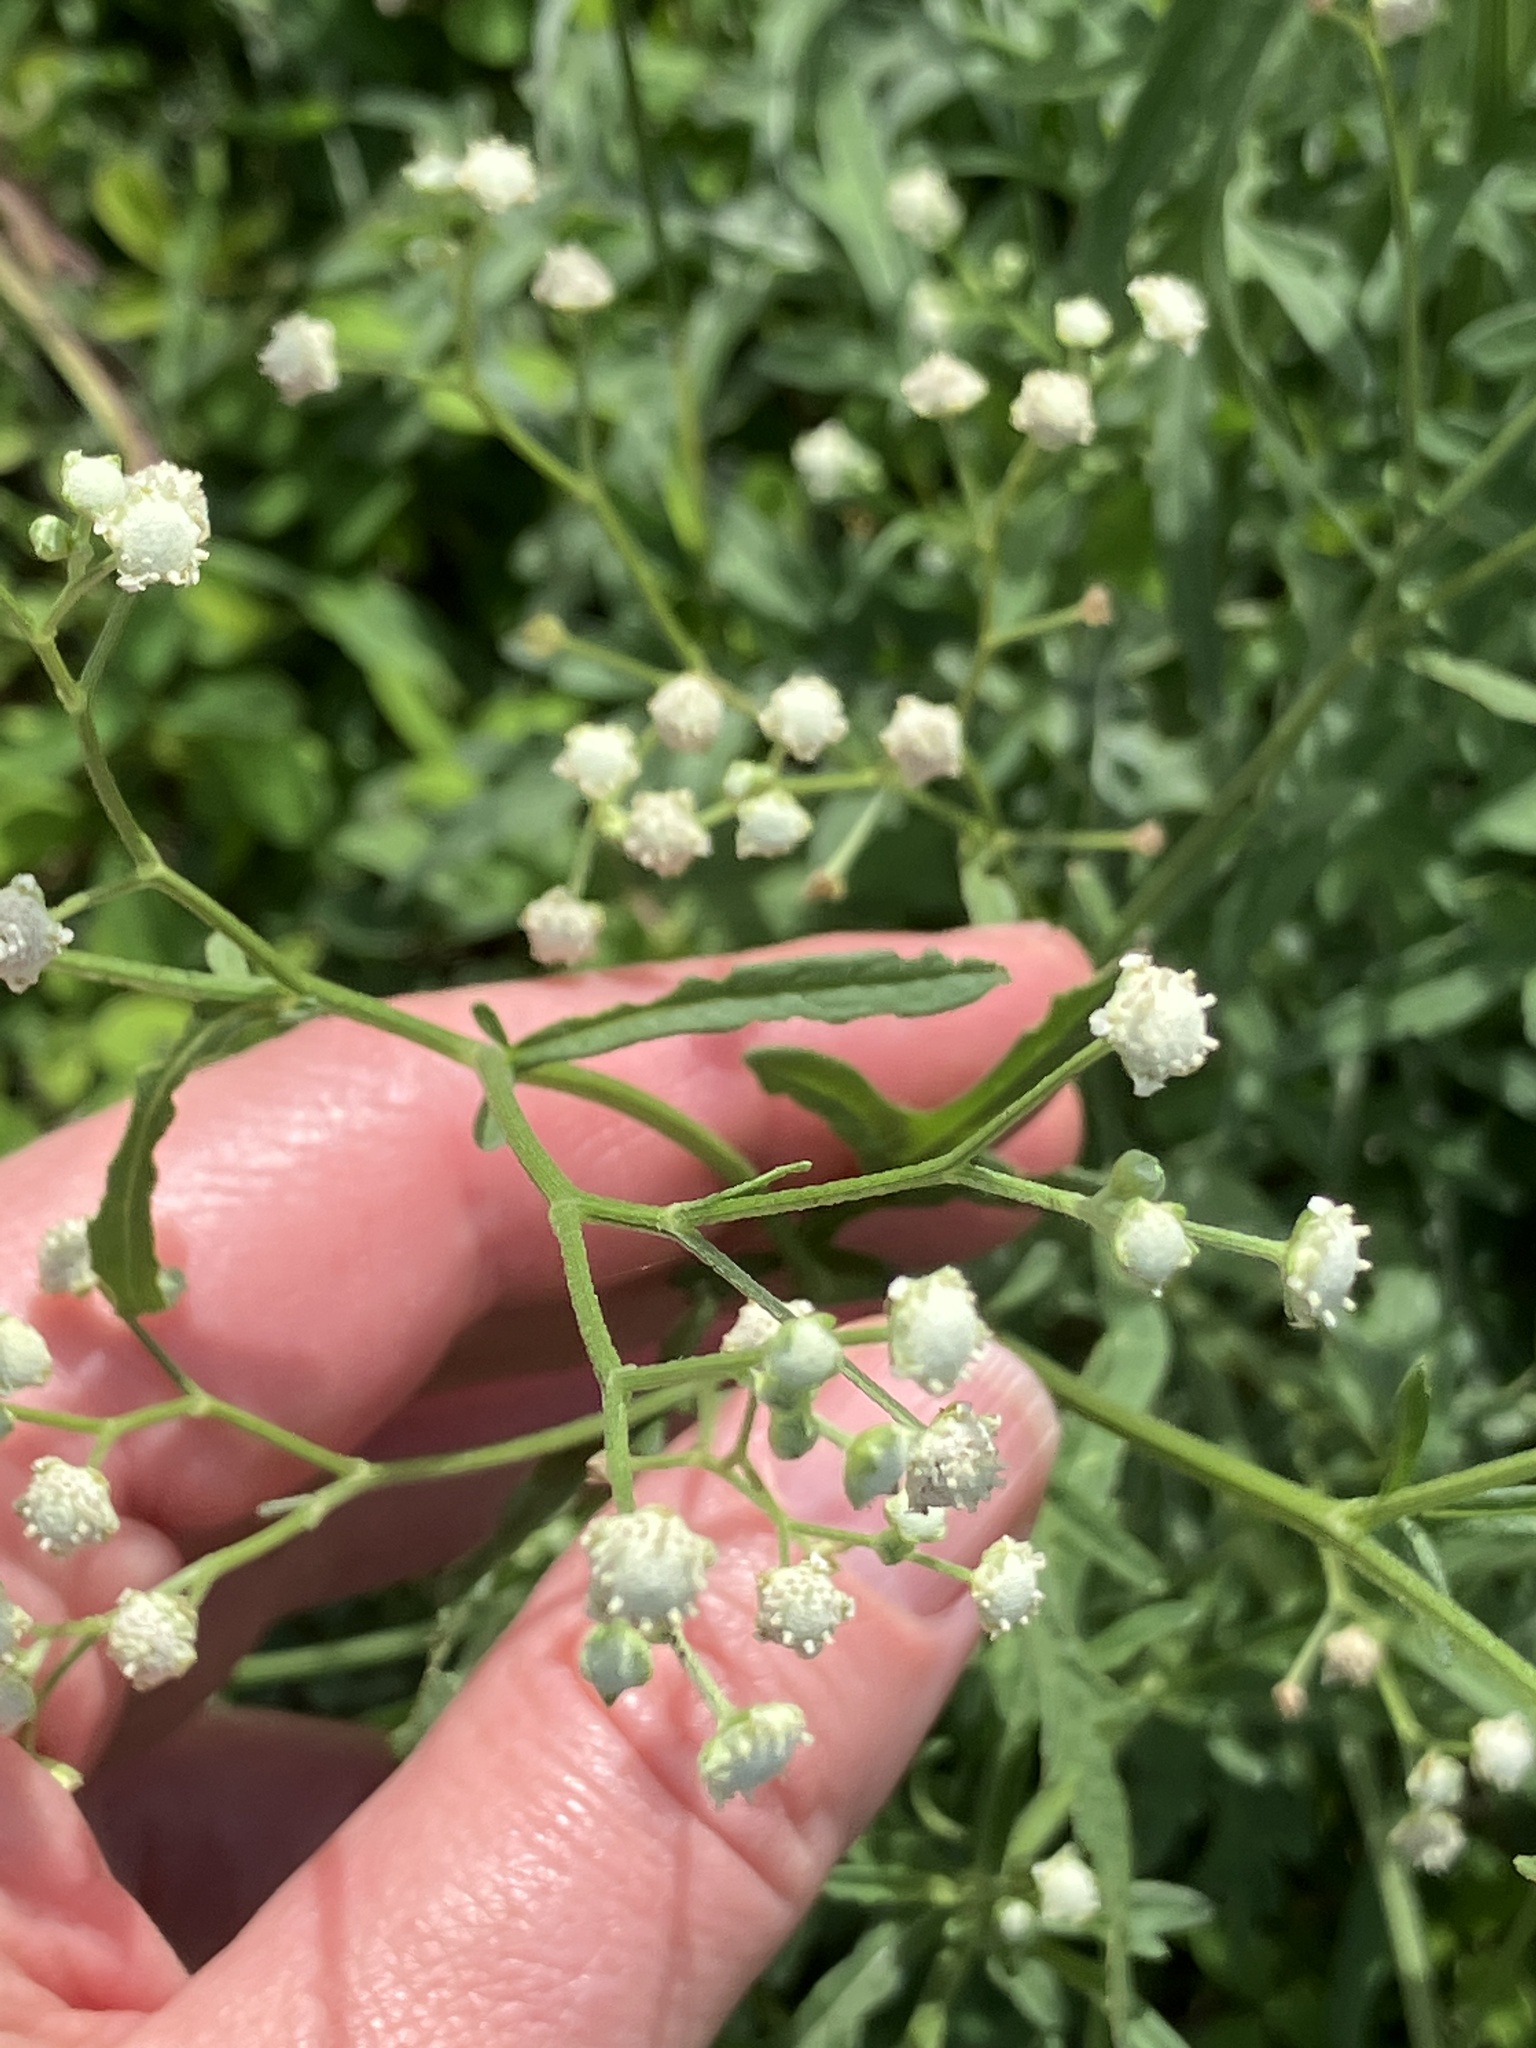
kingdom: Plantae
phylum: Tracheophyta
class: Magnoliopsida
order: Asterales
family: Asteraceae
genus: Parthenium
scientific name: Parthenium hysterophorus
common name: Santa maria feverfew
